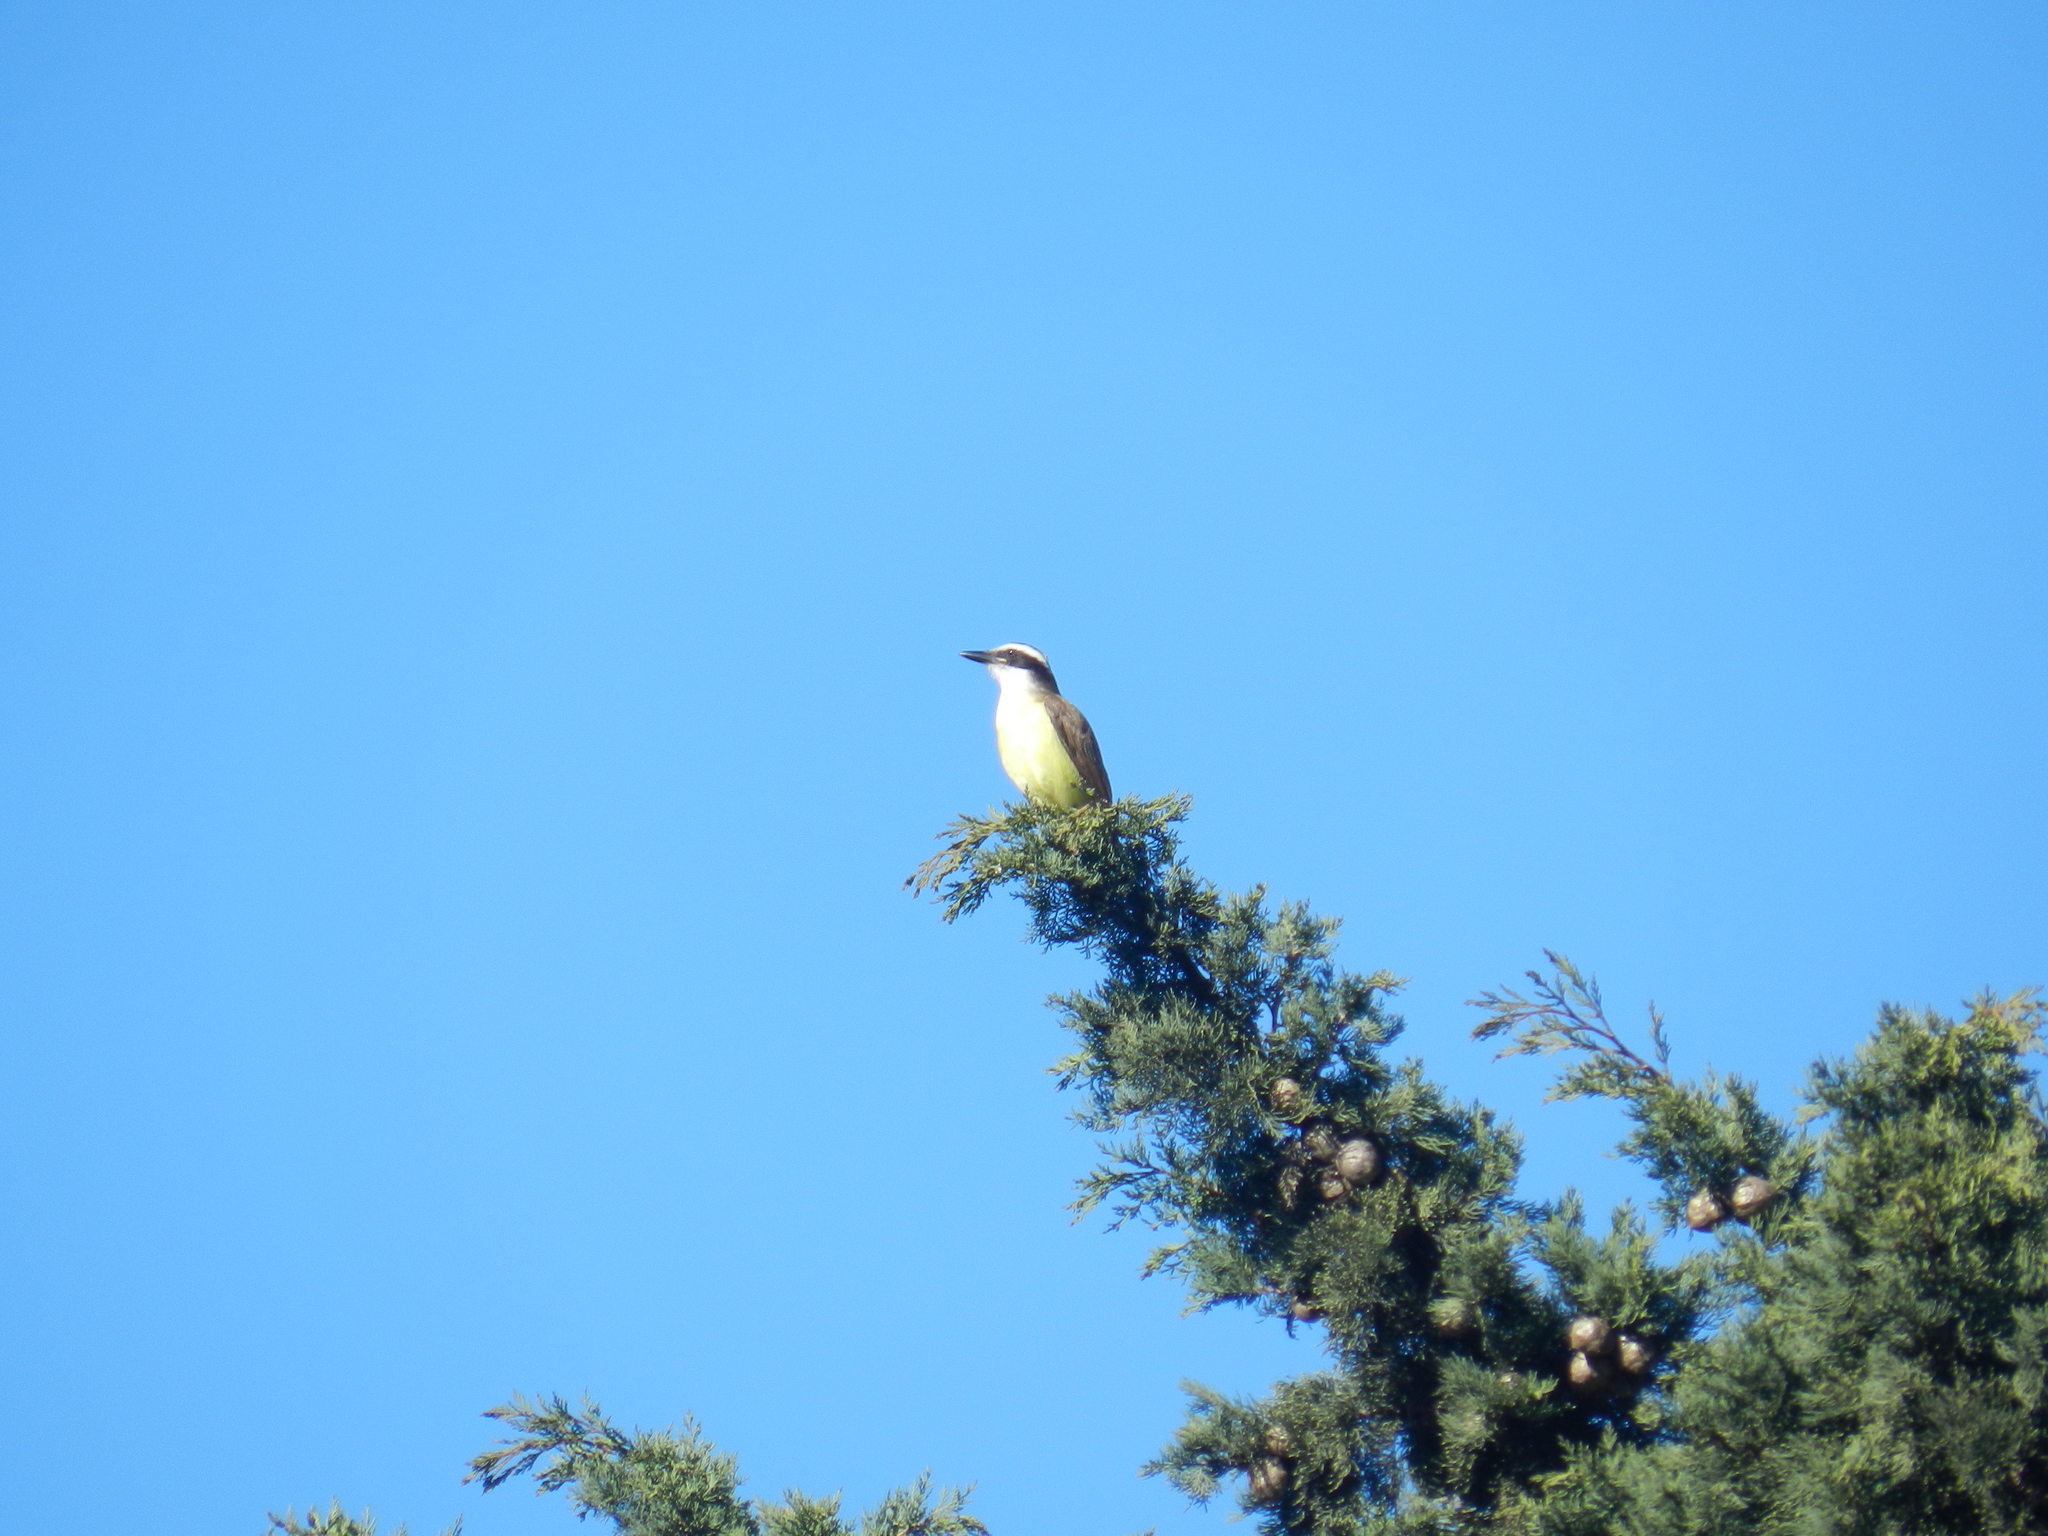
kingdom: Animalia
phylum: Chordata
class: Aves
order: Passeriformes
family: Tyrannidae
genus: Pitangus
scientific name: Pitangus sulphuratus
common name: Great kiskadee
